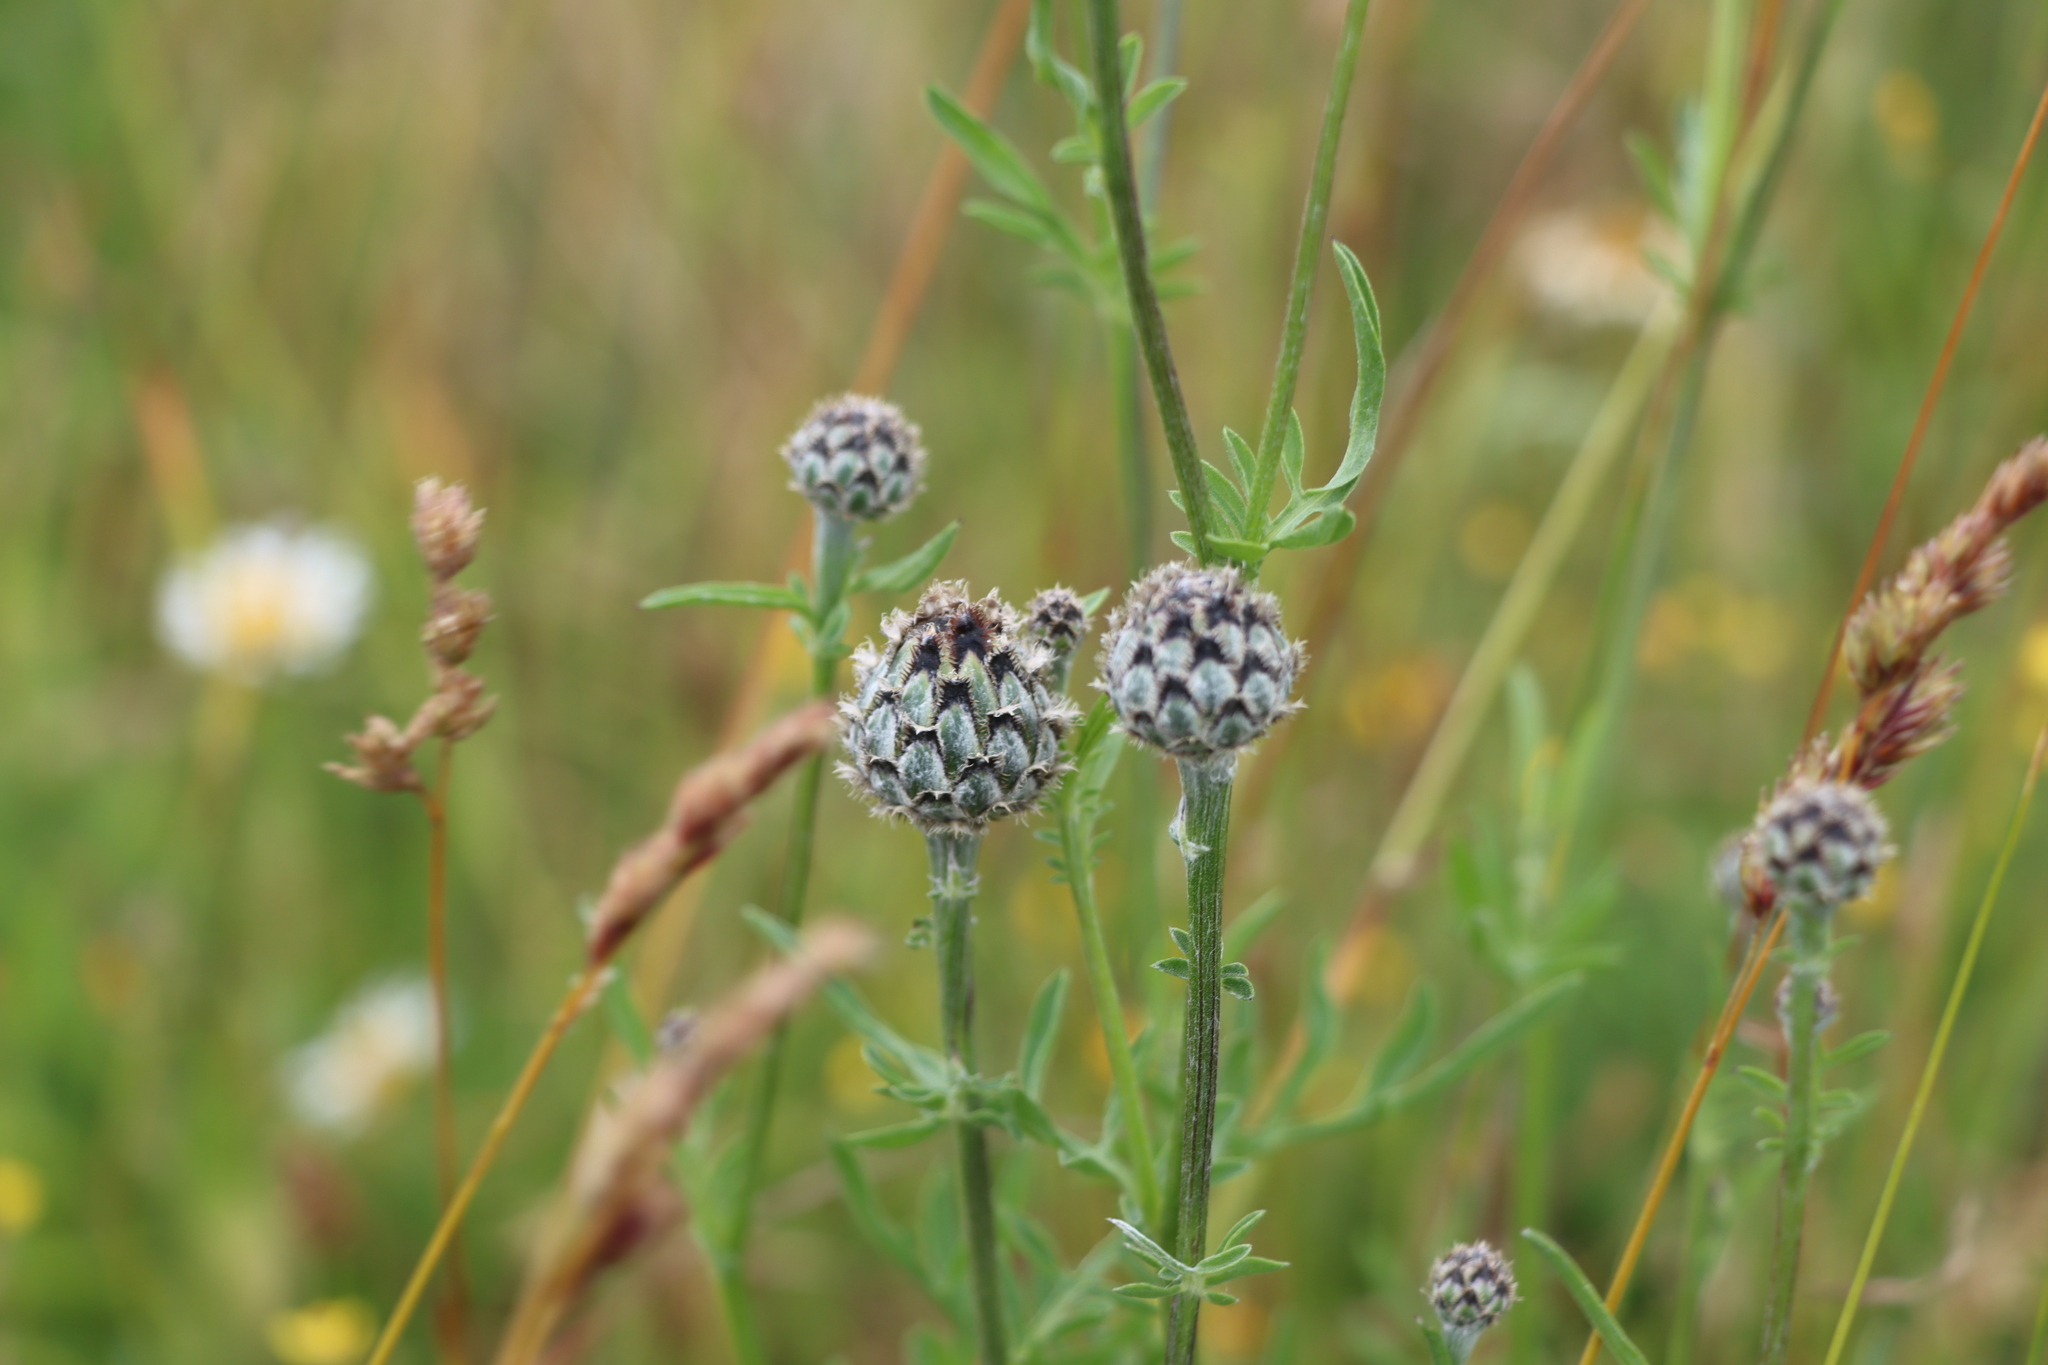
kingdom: Plantae
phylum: Tracheophyta
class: Magnoliopsida
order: Asterales
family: Asteraceae
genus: Centaurea
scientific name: Centaurea scabiosa
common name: Greater knapweed
